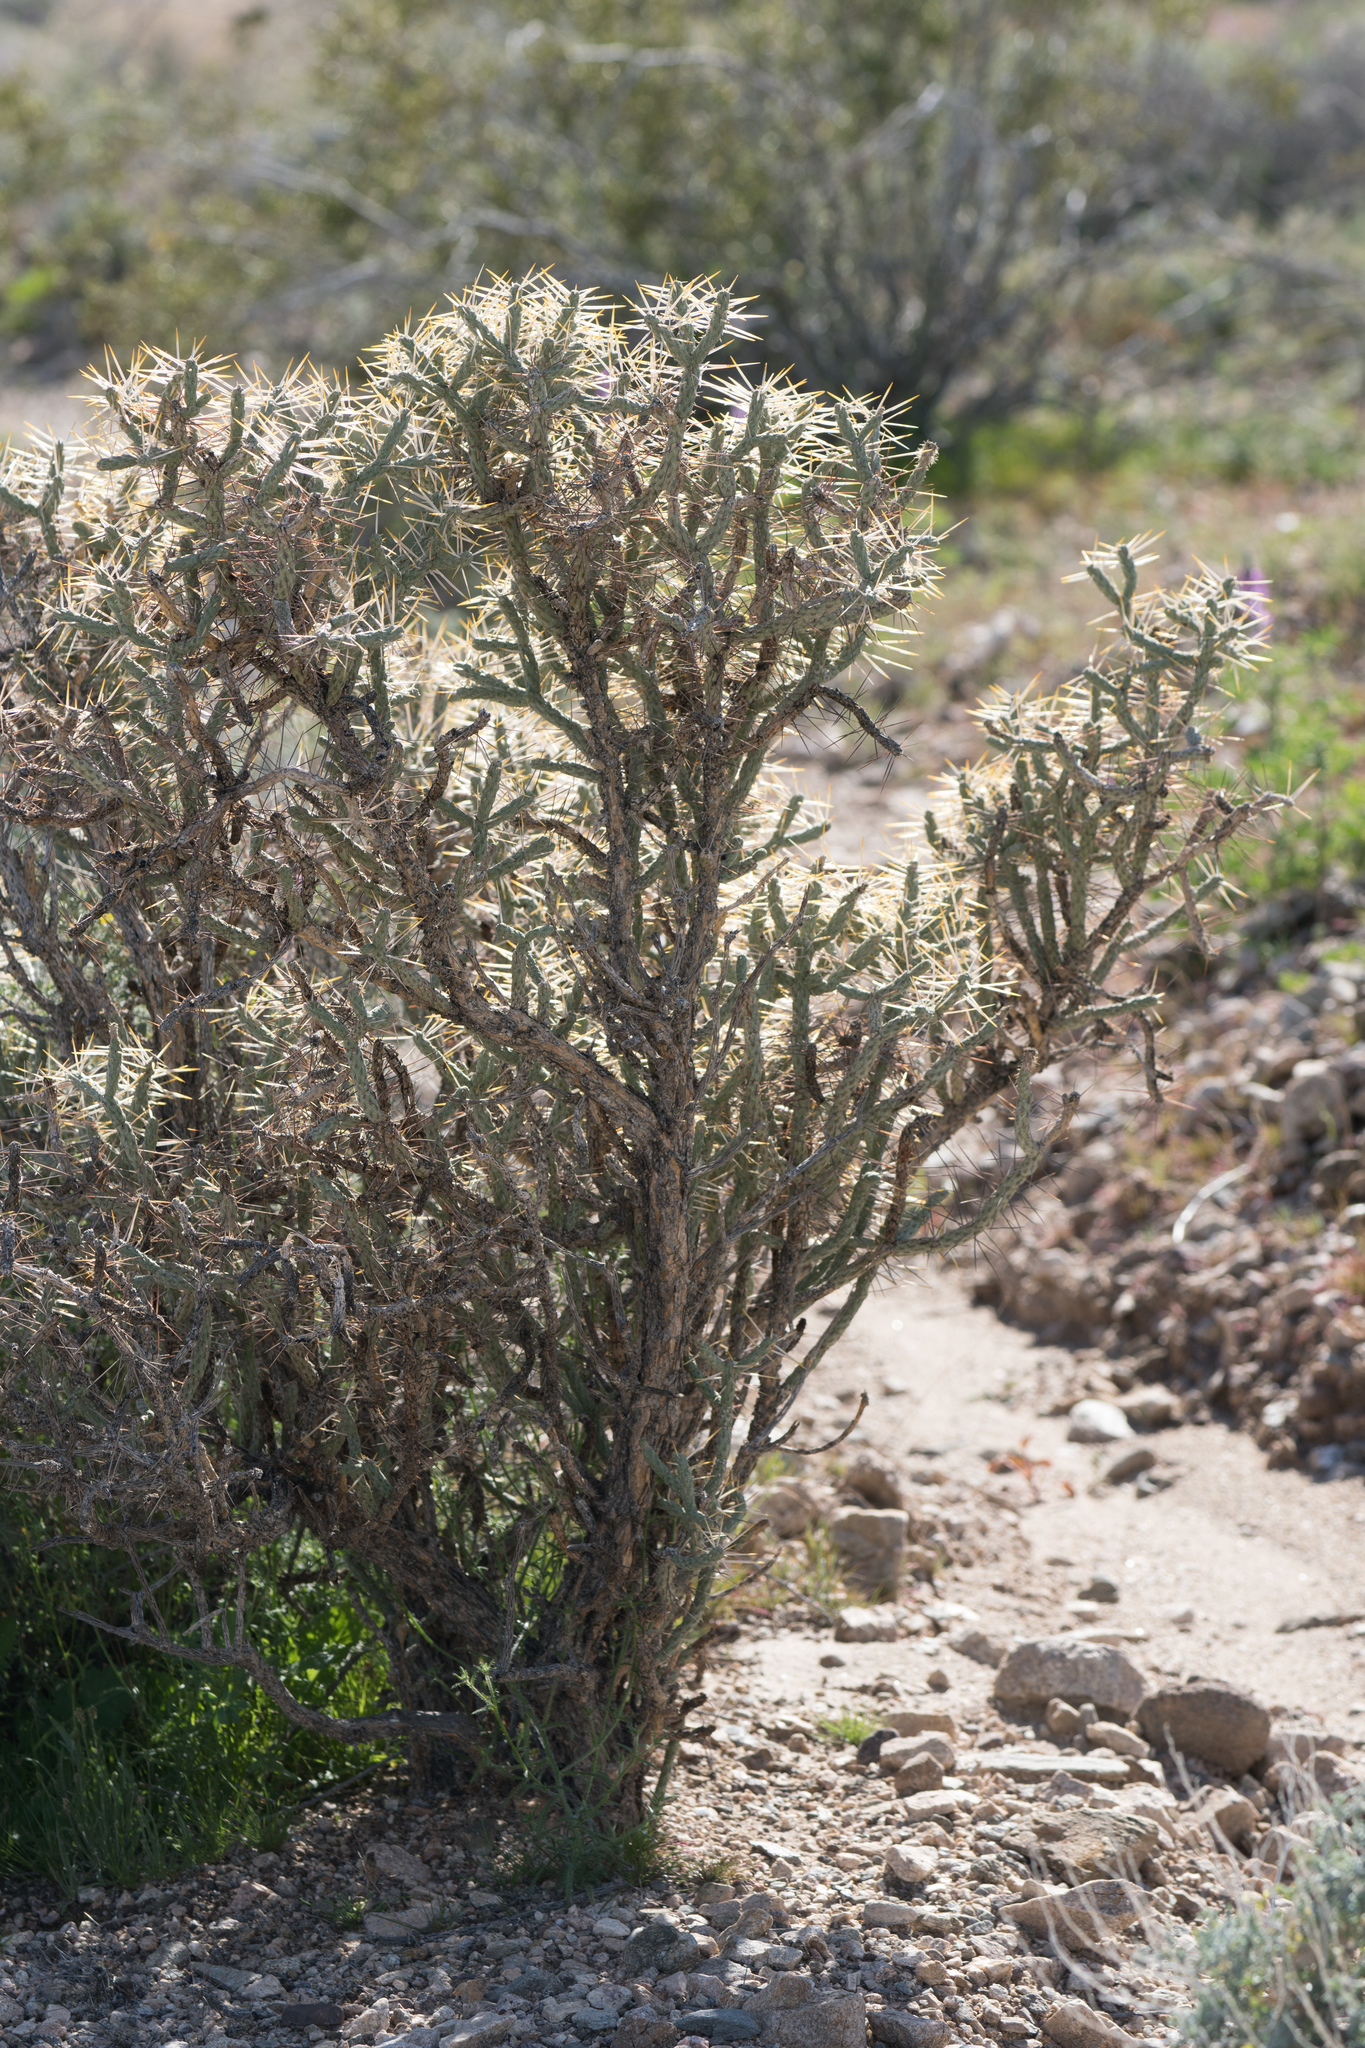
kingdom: Plantae
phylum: Tracheophyta
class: Magnoliopsida
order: Caryophyllales
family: Cactaceae
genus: Cylindropuntia
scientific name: Cylindropuntia ramosissima
